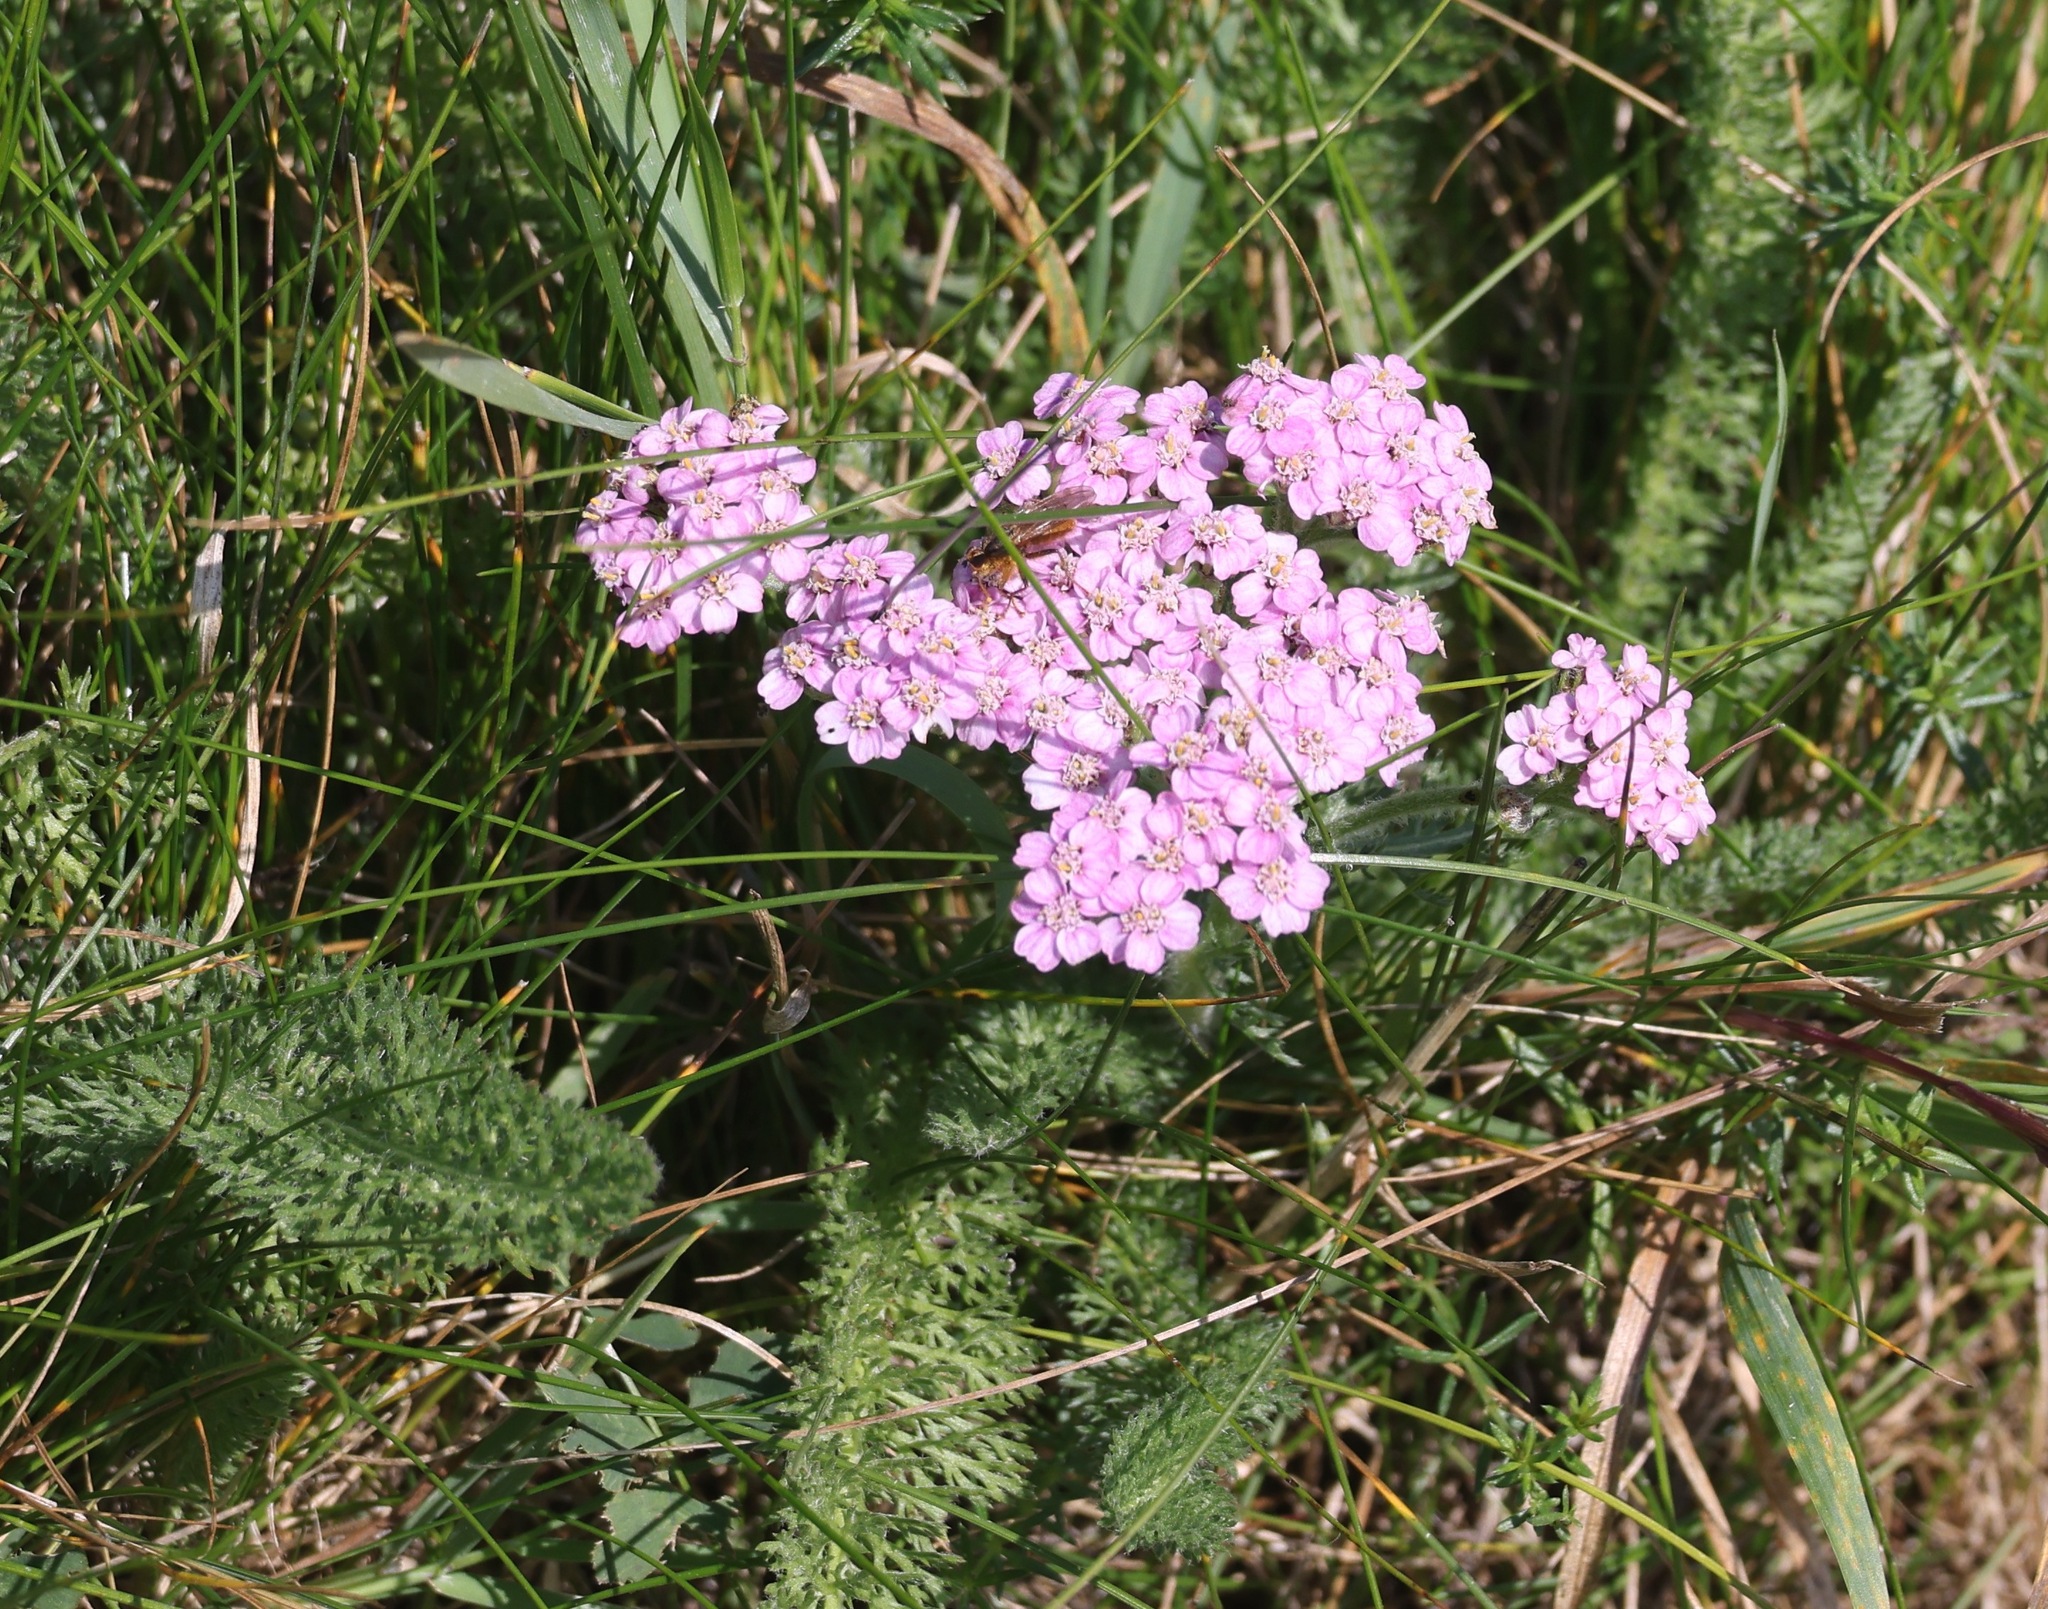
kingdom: Plantae
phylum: Tracheophyta
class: Magnoliopsida
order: Asterales
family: Asteraceae
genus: Achillea
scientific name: Achillea millefolium
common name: Yarrow
